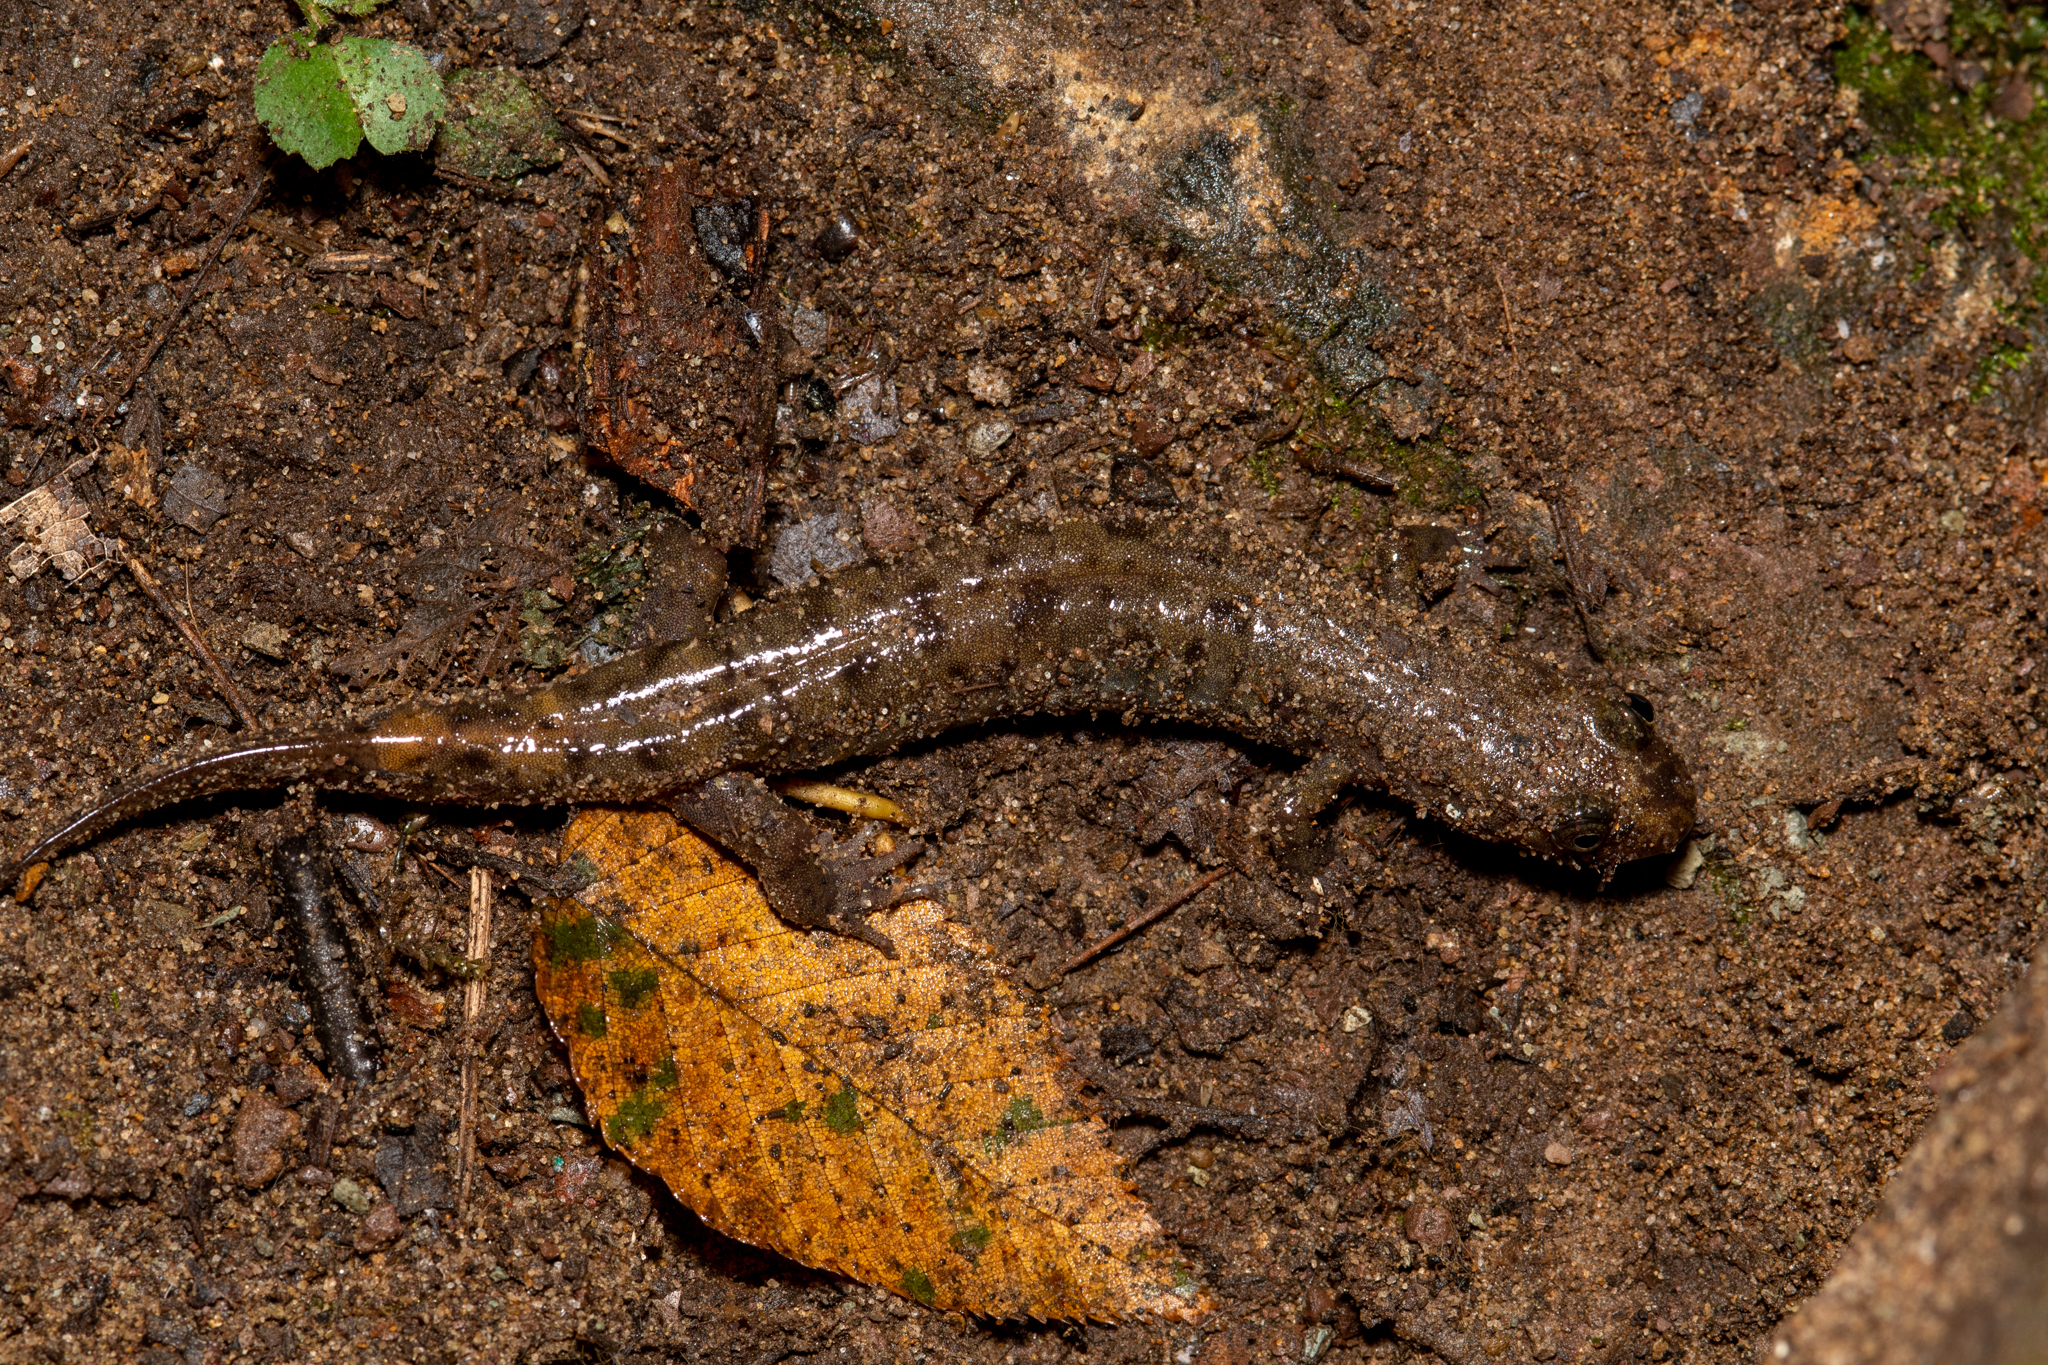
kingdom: Animalia
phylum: Chordata
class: Amphibia
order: Caudata
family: Plethodontidae
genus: Desmognathus
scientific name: Desmognathus monticola
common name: Seal salamander
